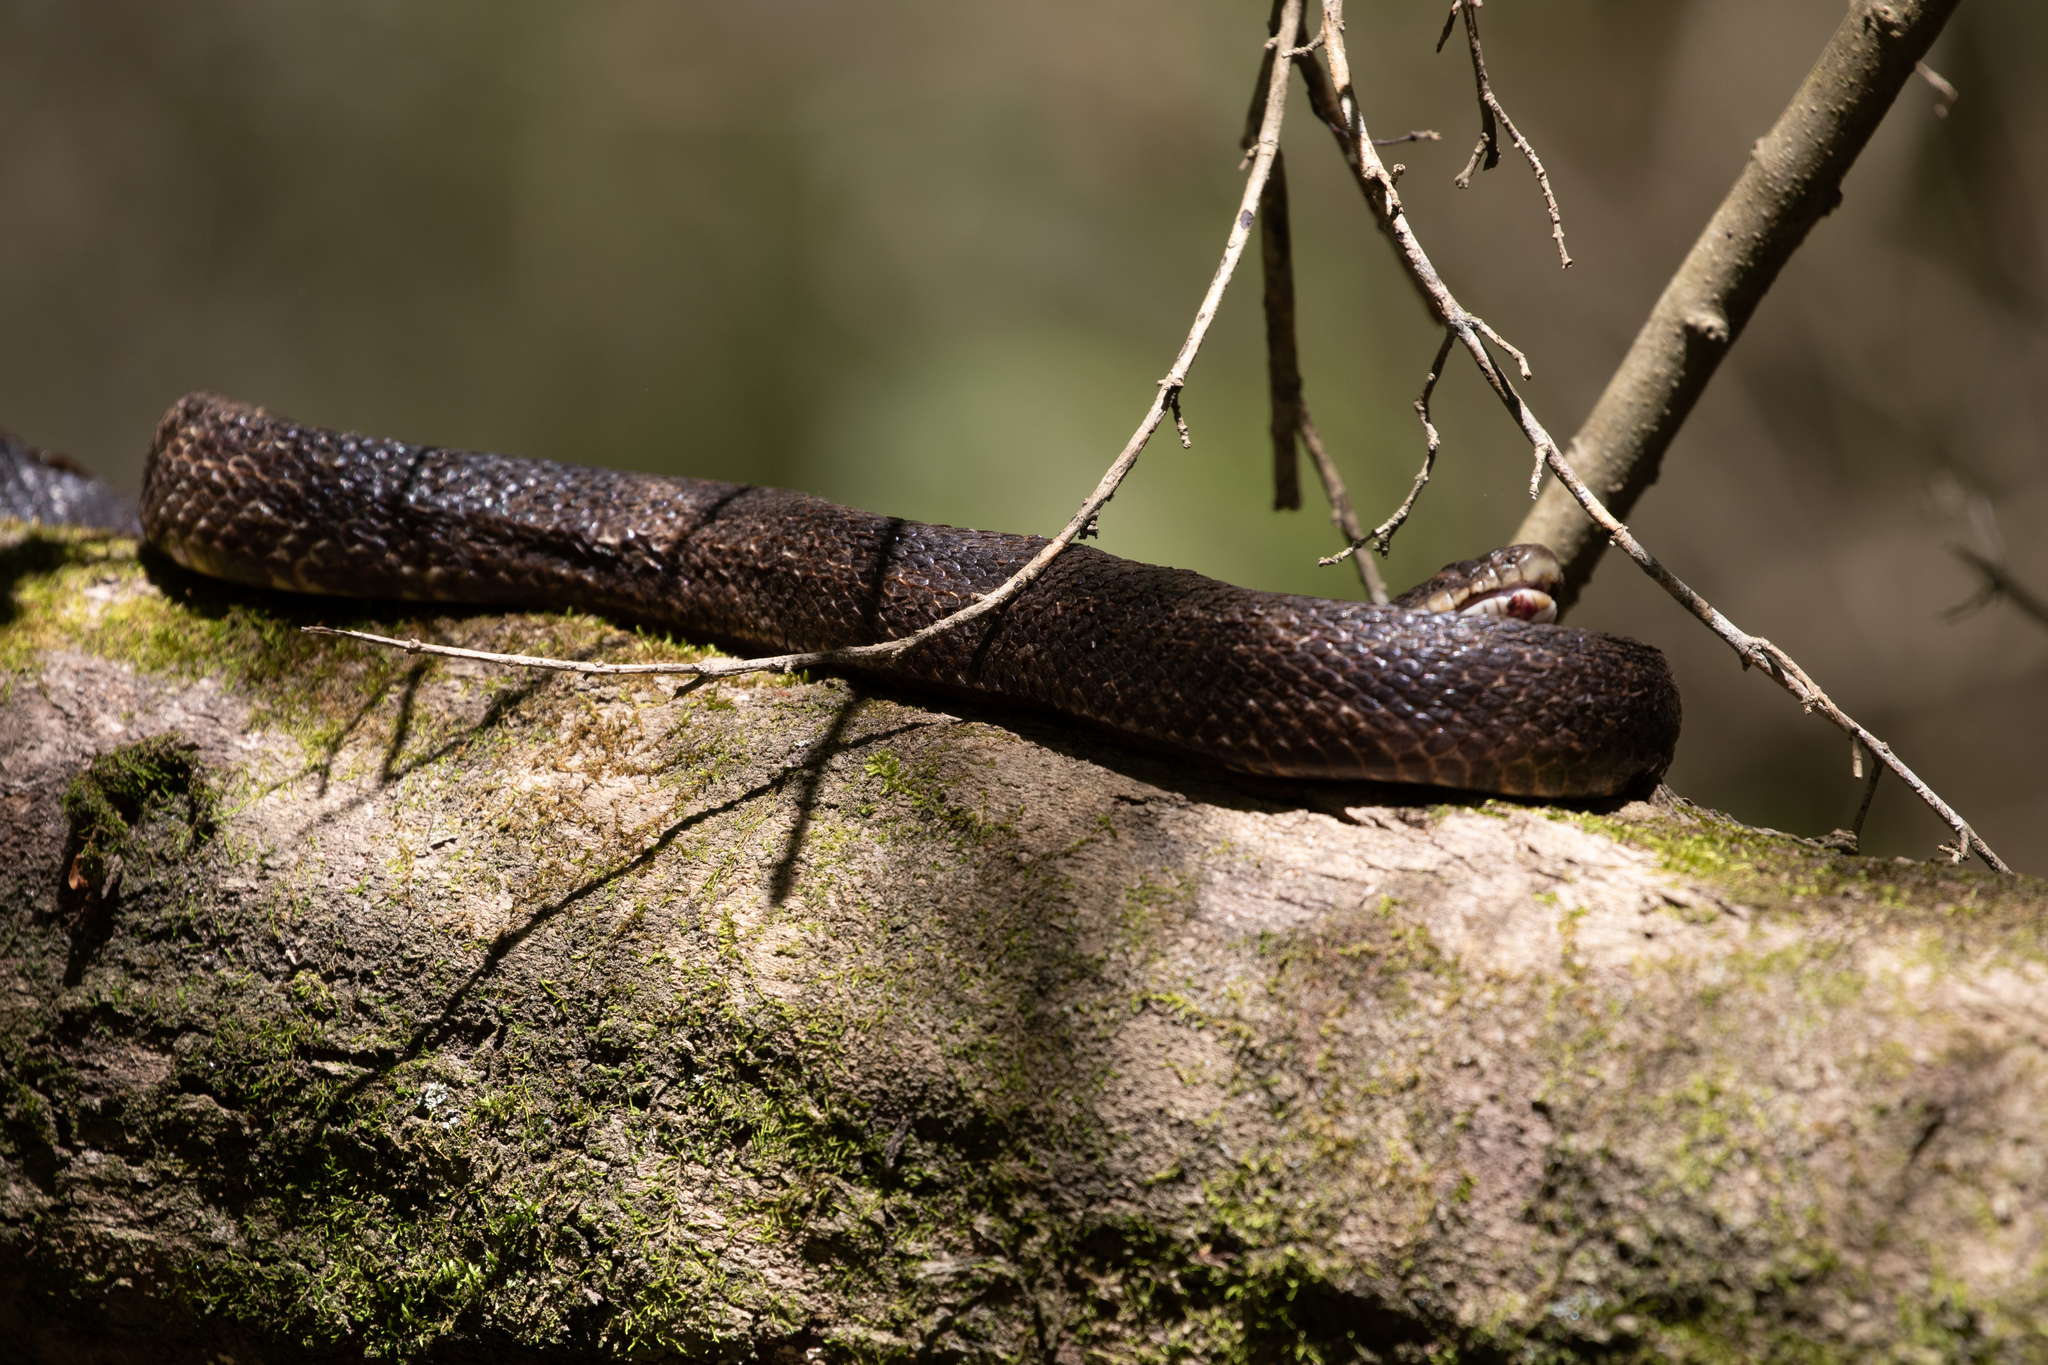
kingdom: Animalia
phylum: Chordata
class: Squamata
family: Colubridae
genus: Pantherophis
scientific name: Pantherophis
